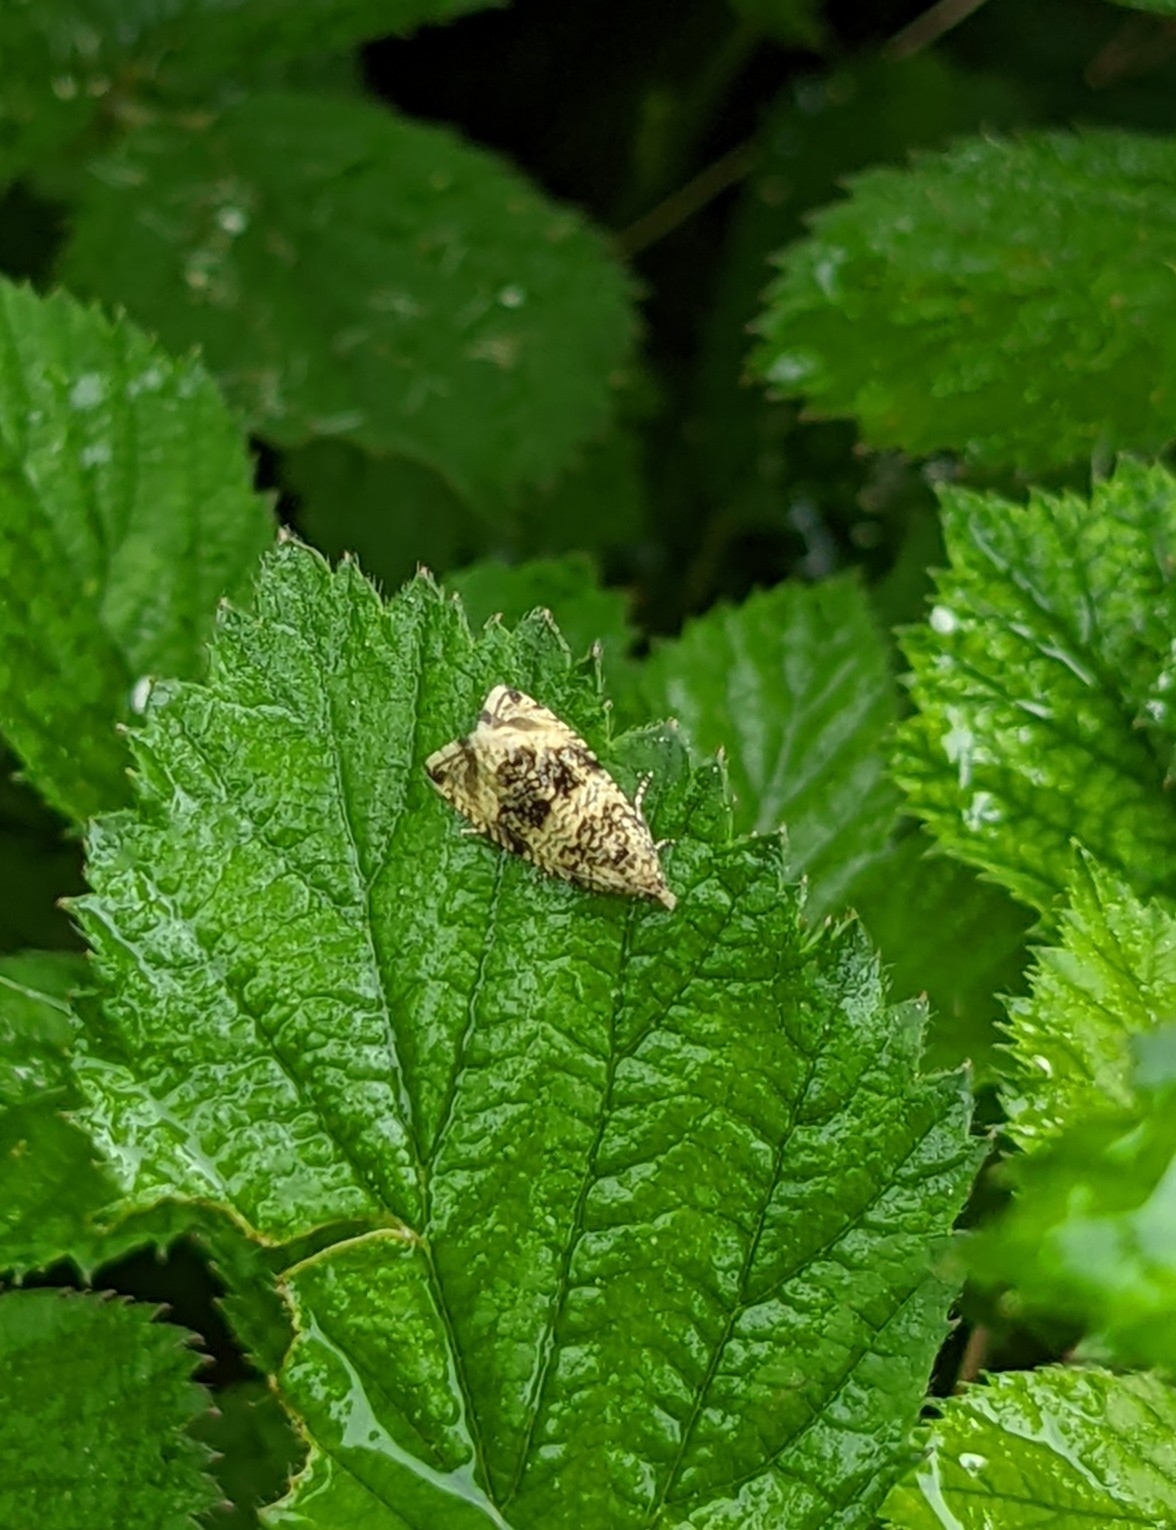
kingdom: Animalia
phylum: Arthropoda
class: Insecta
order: Lepidoptera
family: Tortricidae
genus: Syricoris
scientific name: Syricoris lacunana
